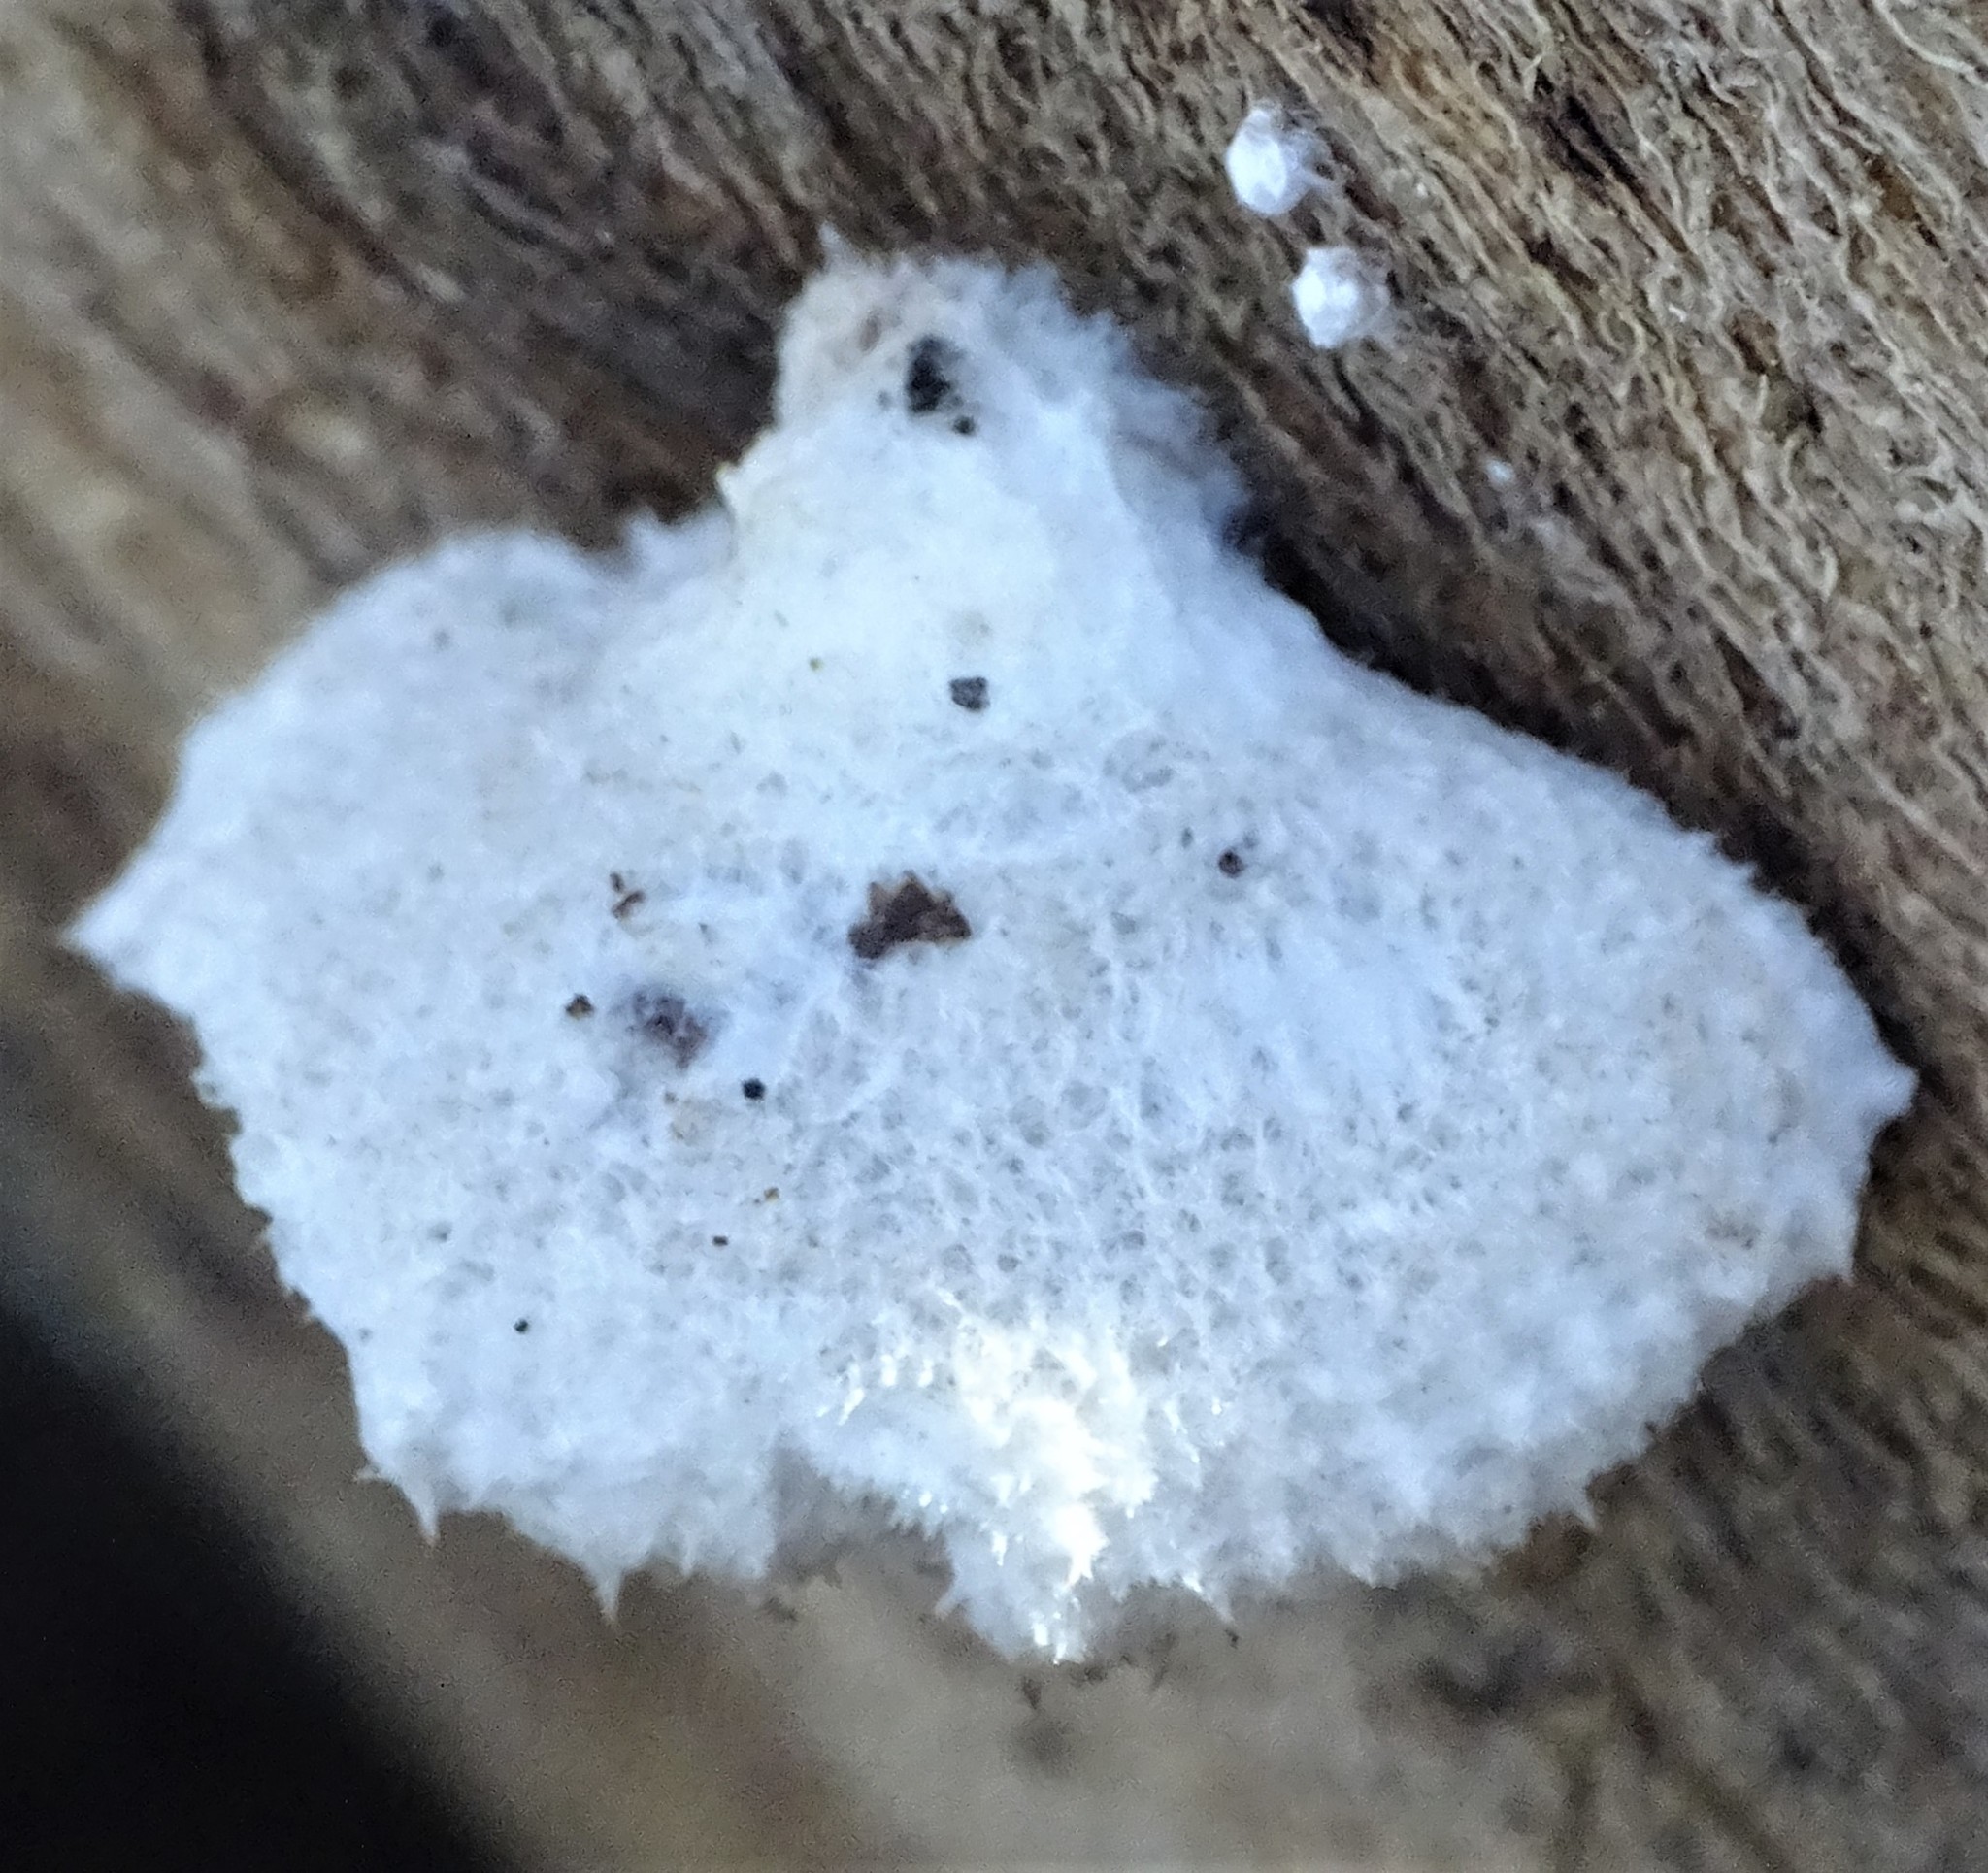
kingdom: Fungi
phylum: Basidiomycota
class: Agaricomycetes
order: Agaricales
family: Schizophyllaceae
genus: Schizophyllum
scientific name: Schizophyllum commune
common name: Common porecrust
